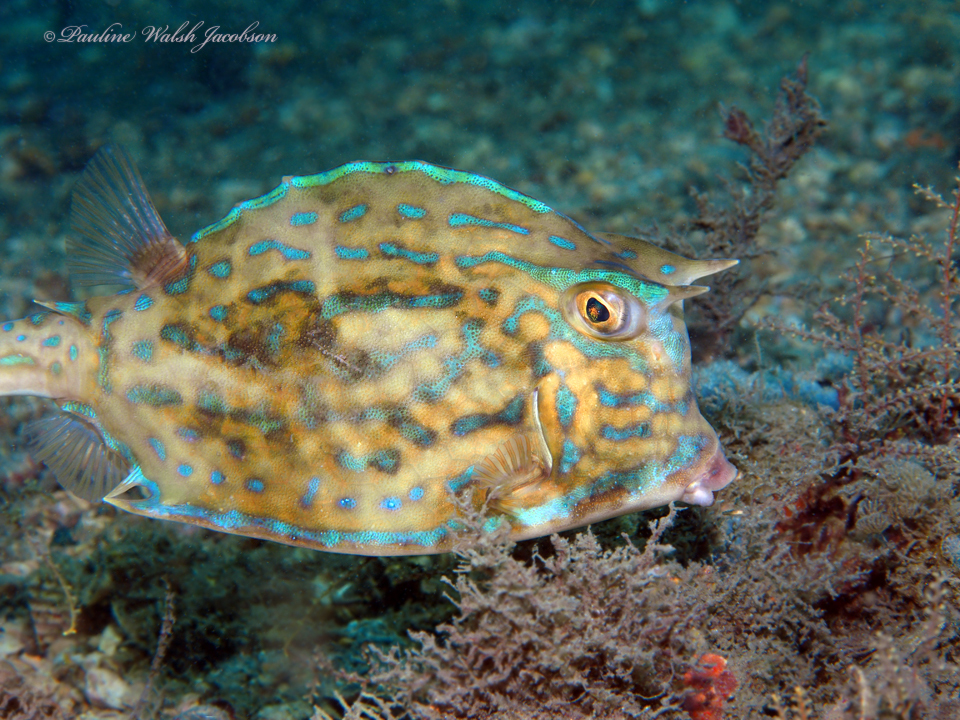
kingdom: Animalia
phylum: Chordata
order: Tetraodontiformes
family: Ostraciidae
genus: Acanthostracion
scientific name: Acanthostracion quadricornis
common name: Scrawled cowfish
